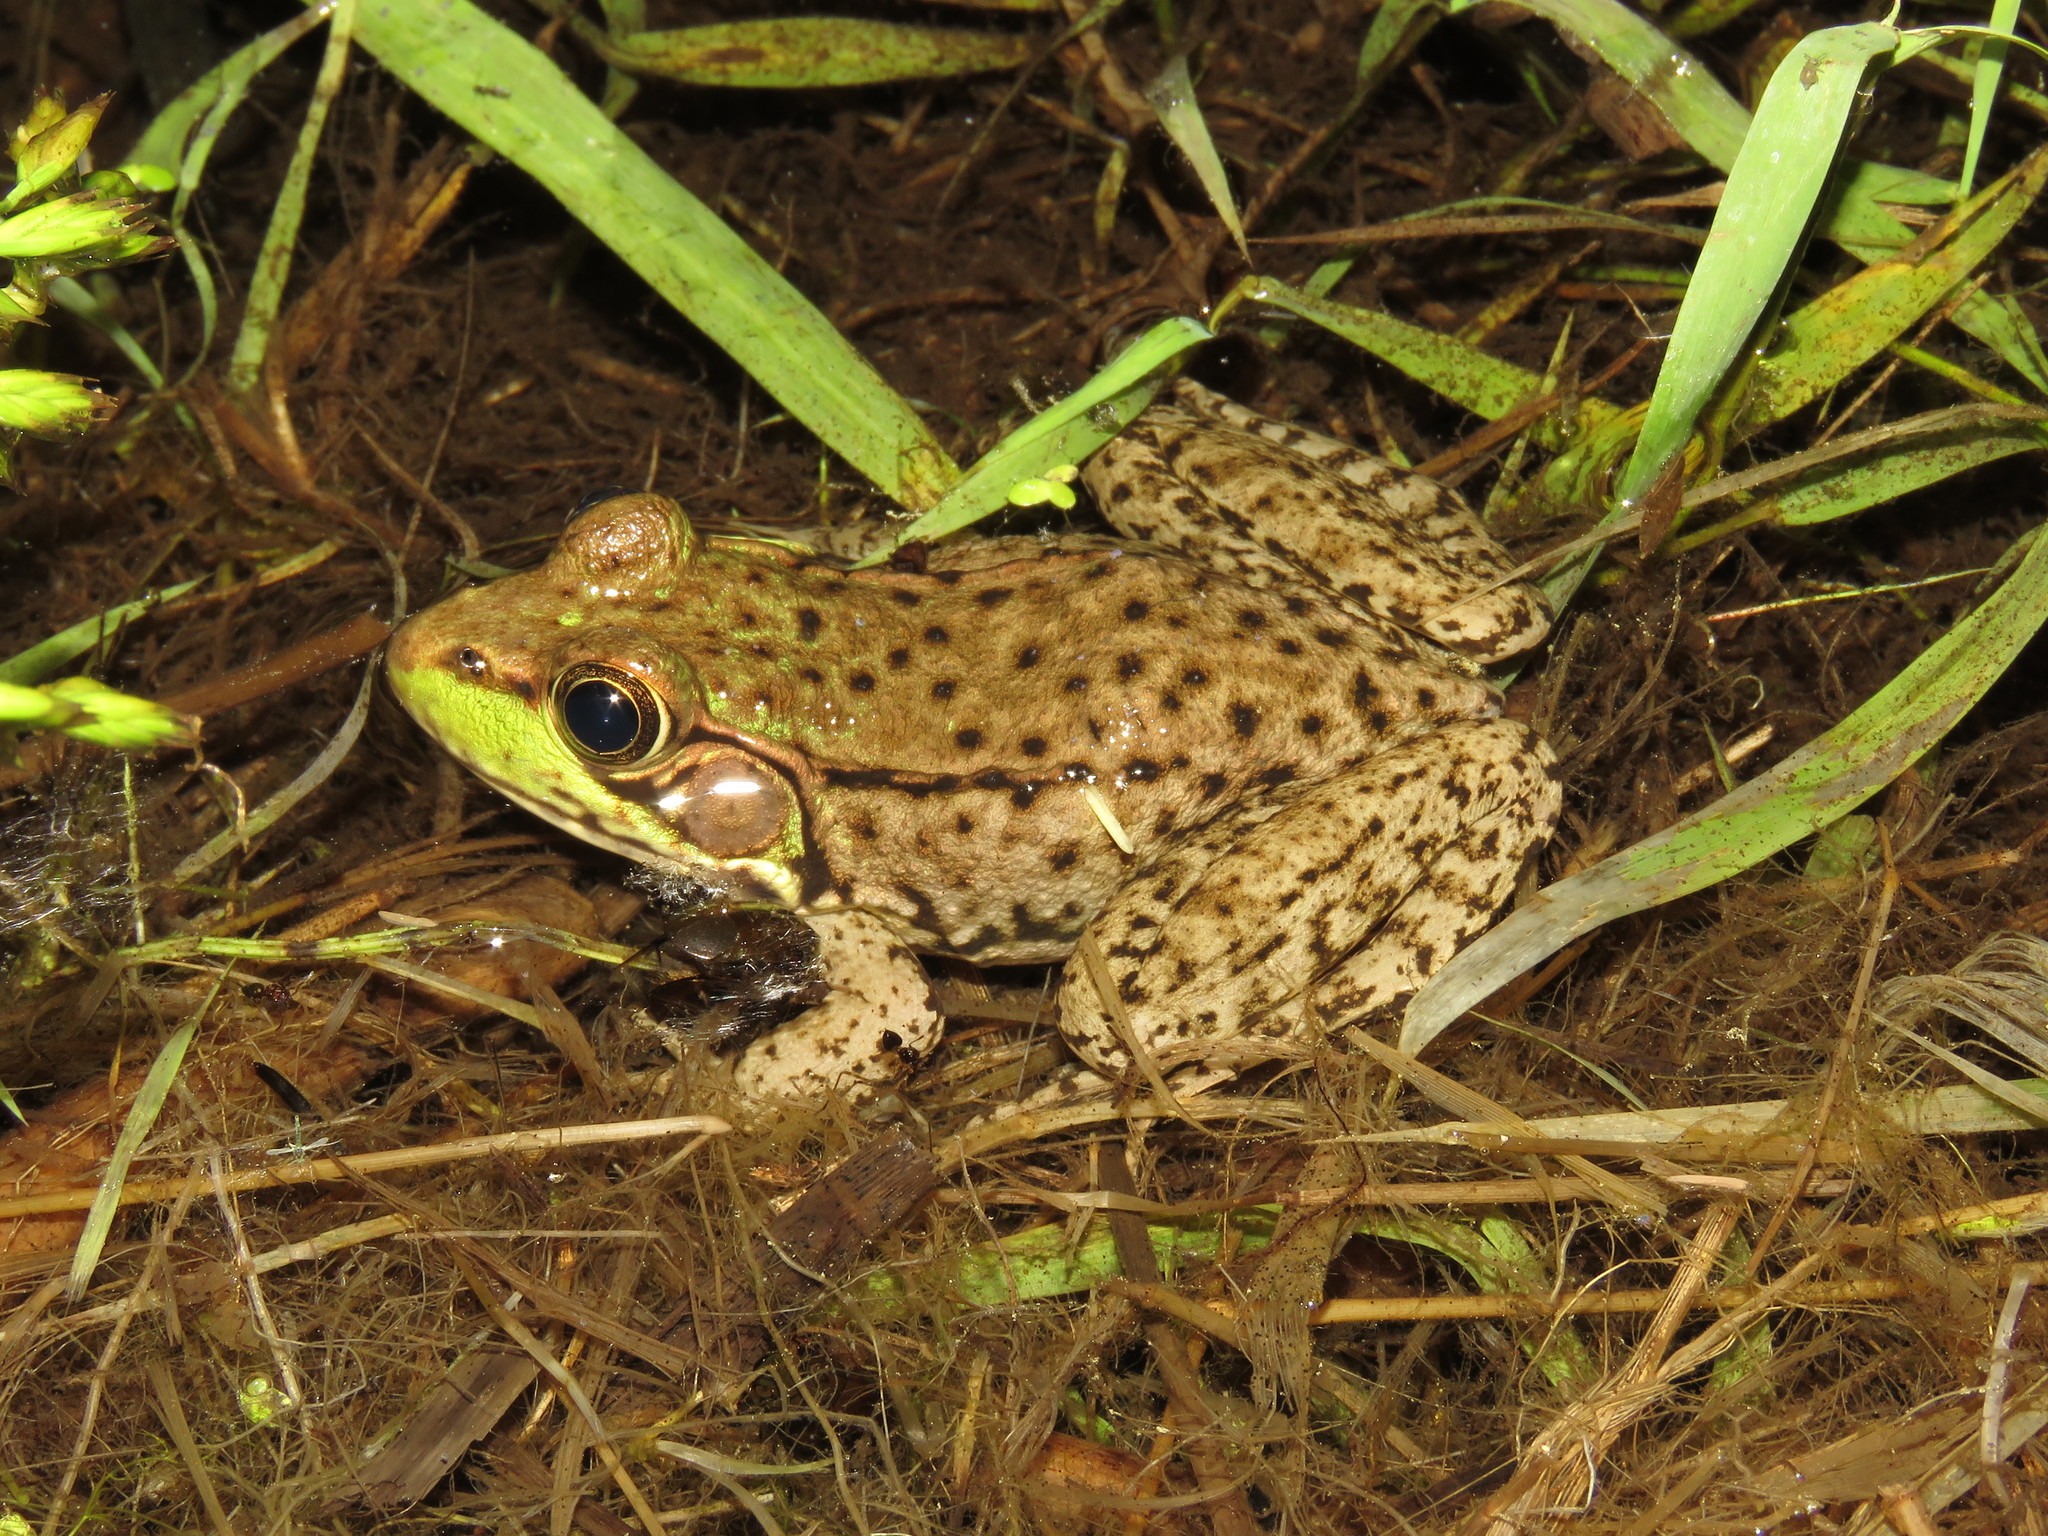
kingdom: Animalia
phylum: Chordata
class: Amphibia
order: Anura
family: Ranidae
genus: Lithobates
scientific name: Lithobates clamitans
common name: Green frog
